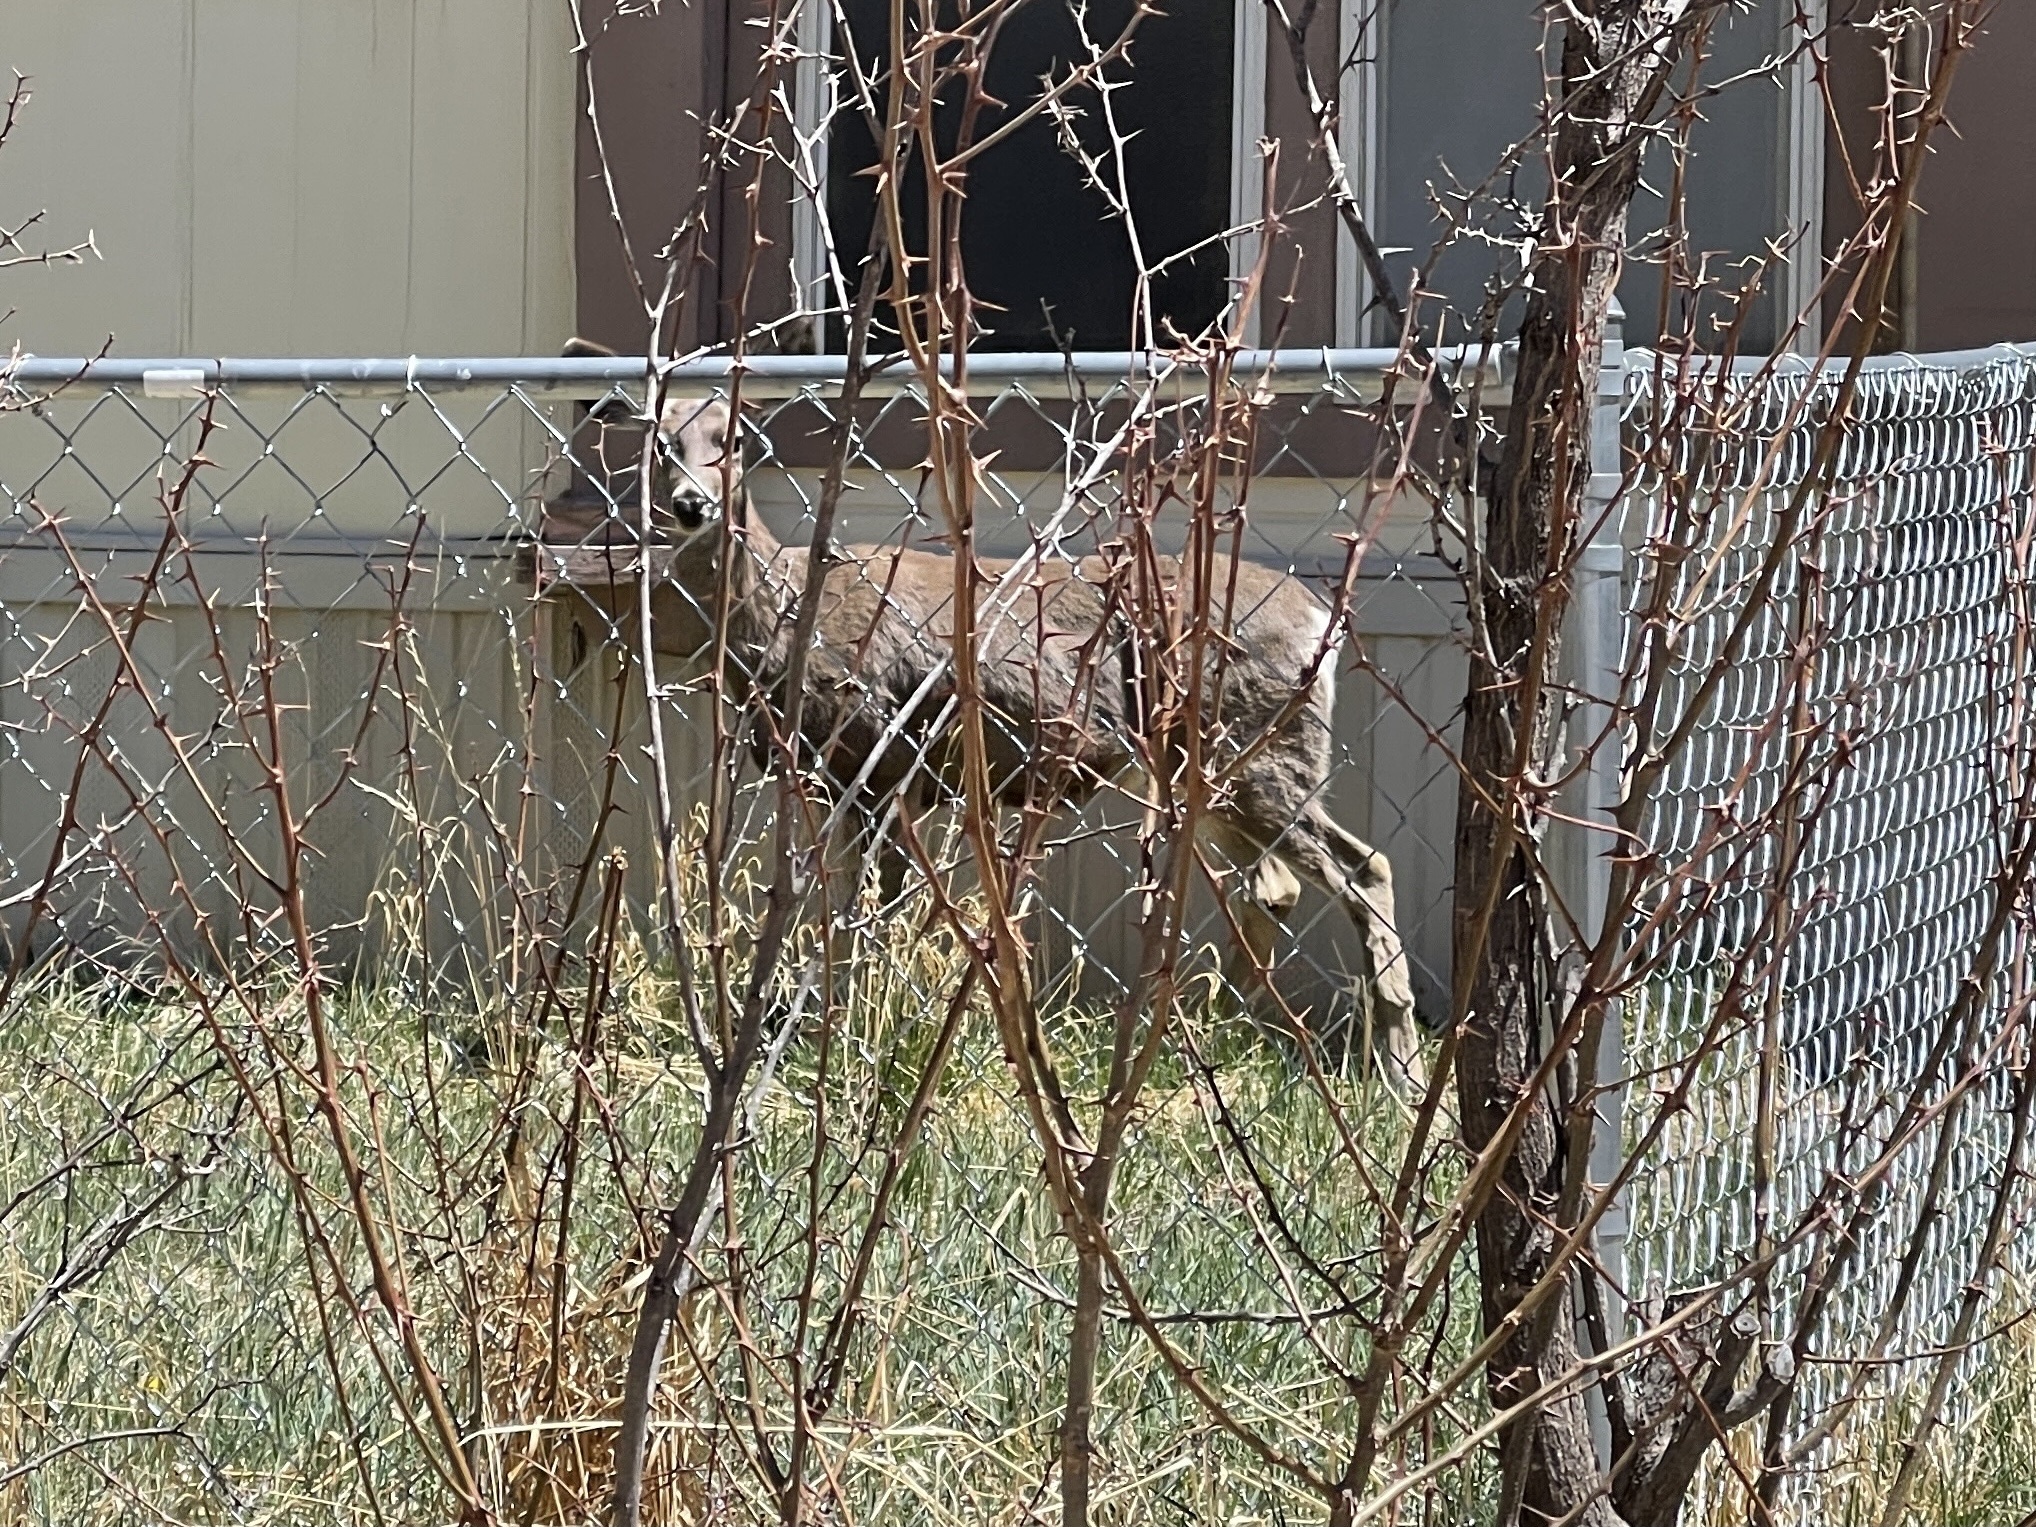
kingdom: Animalia
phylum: Chordata
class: Mammalia
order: Artiodactyla
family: Cervidae
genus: Odocoileus
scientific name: Odocoileus hemionus
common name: Mule deer
